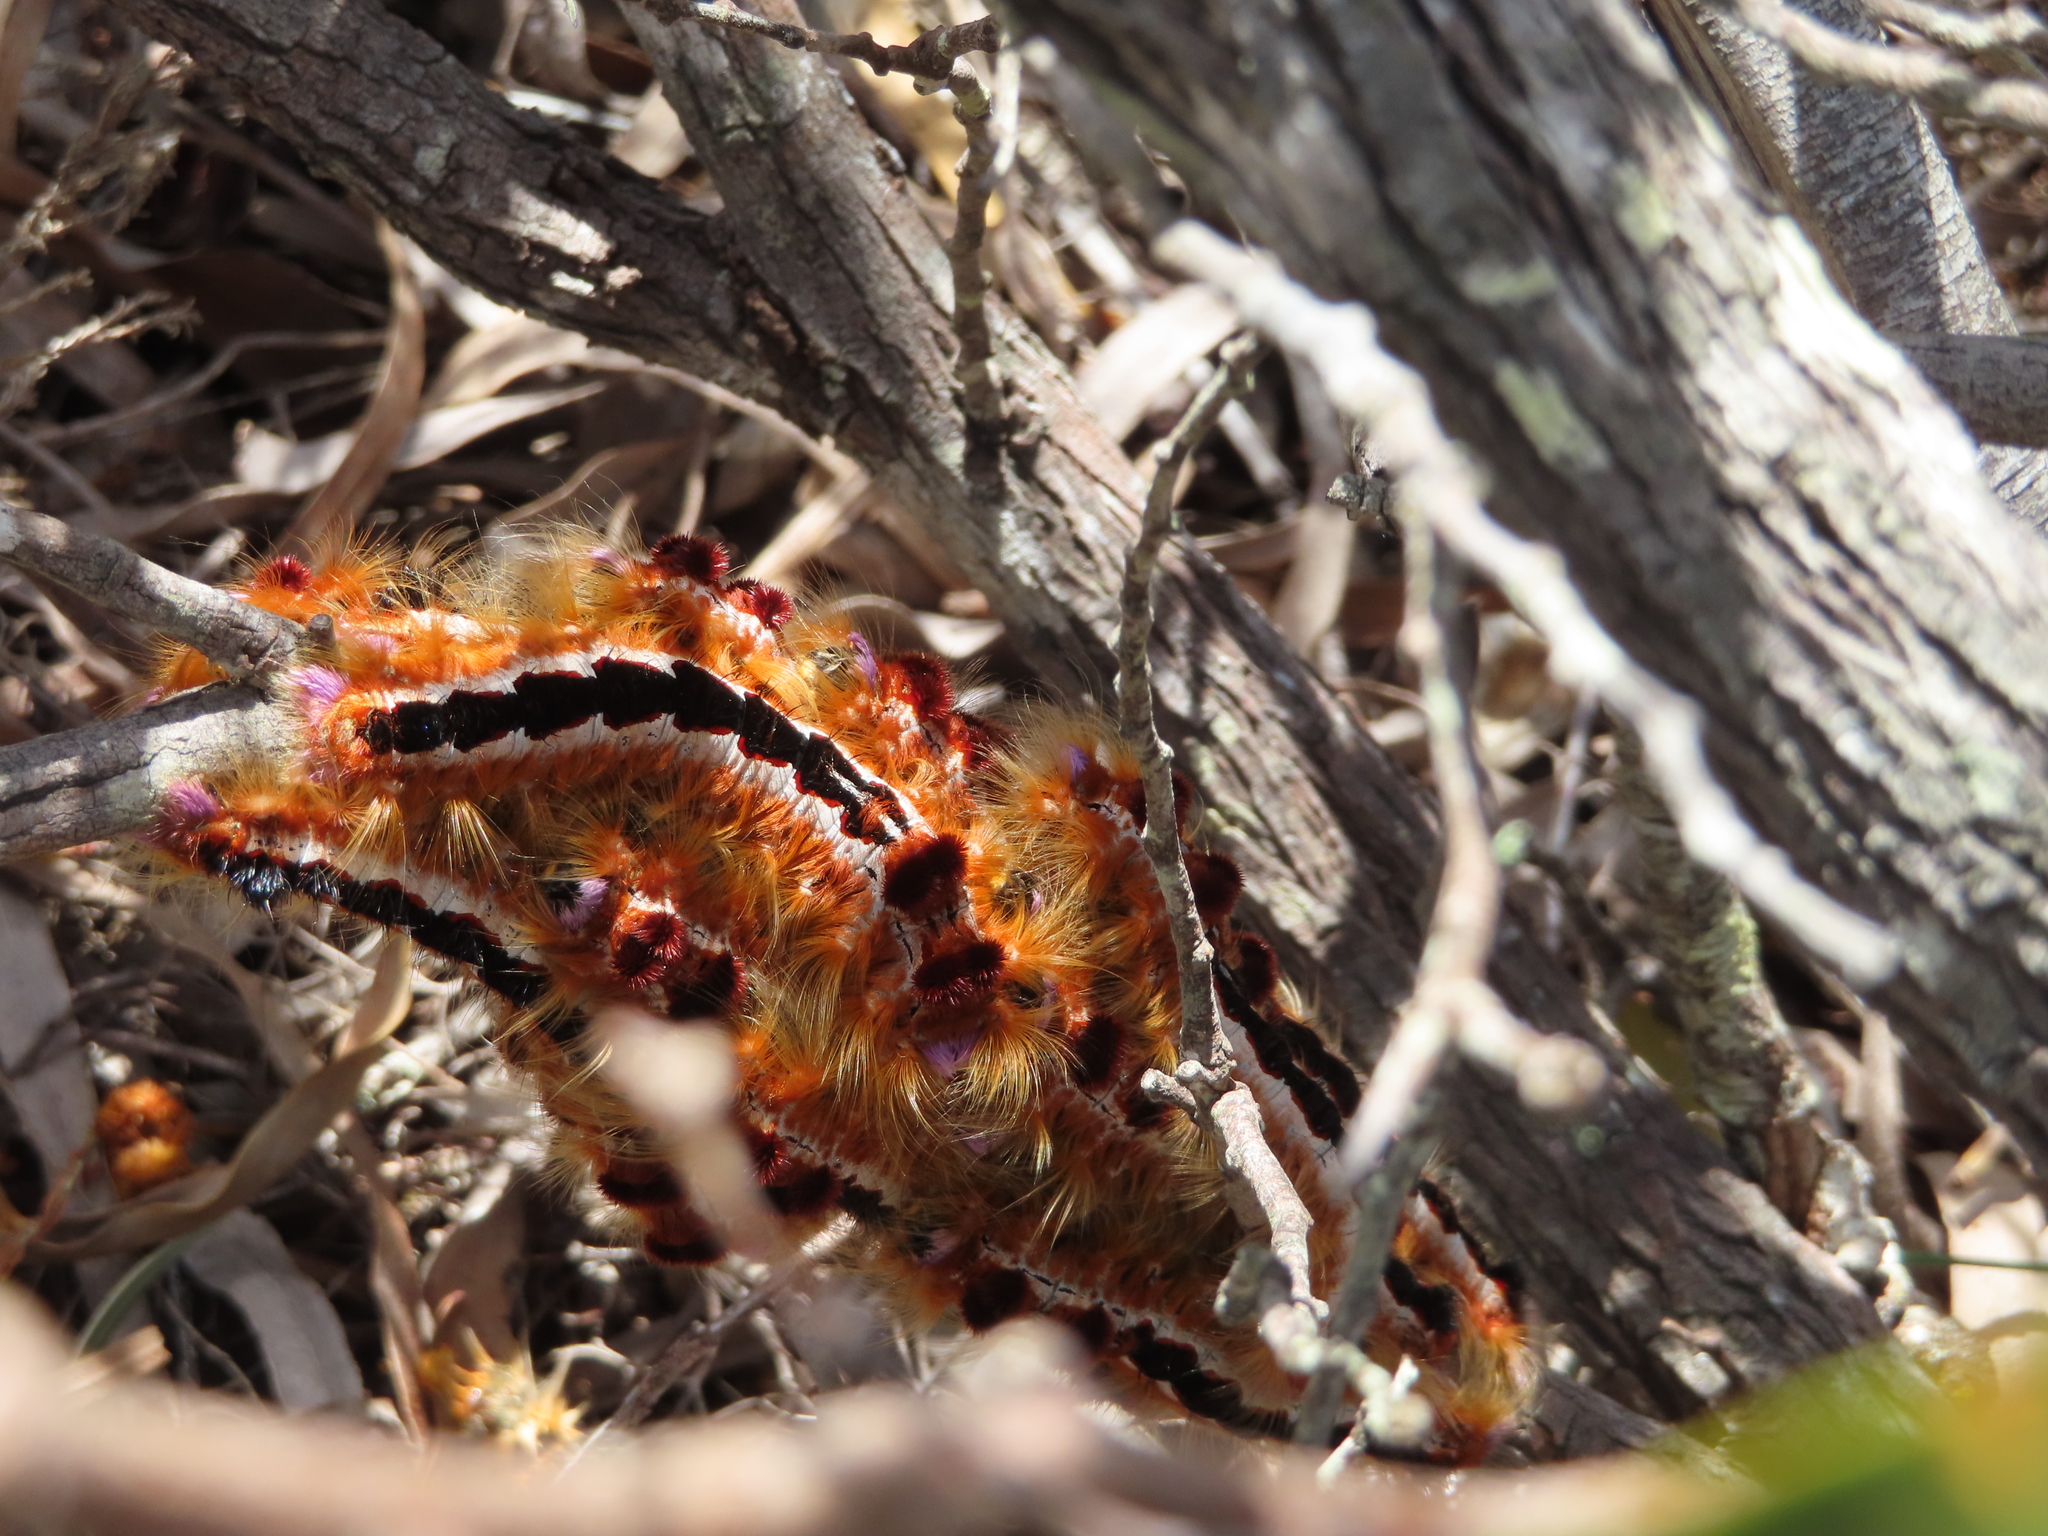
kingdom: Animalia
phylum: Arthropoda
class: Insecta
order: Lepidoptera
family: Lasiocampidae
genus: Eutricha
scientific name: Eutricha capensis
